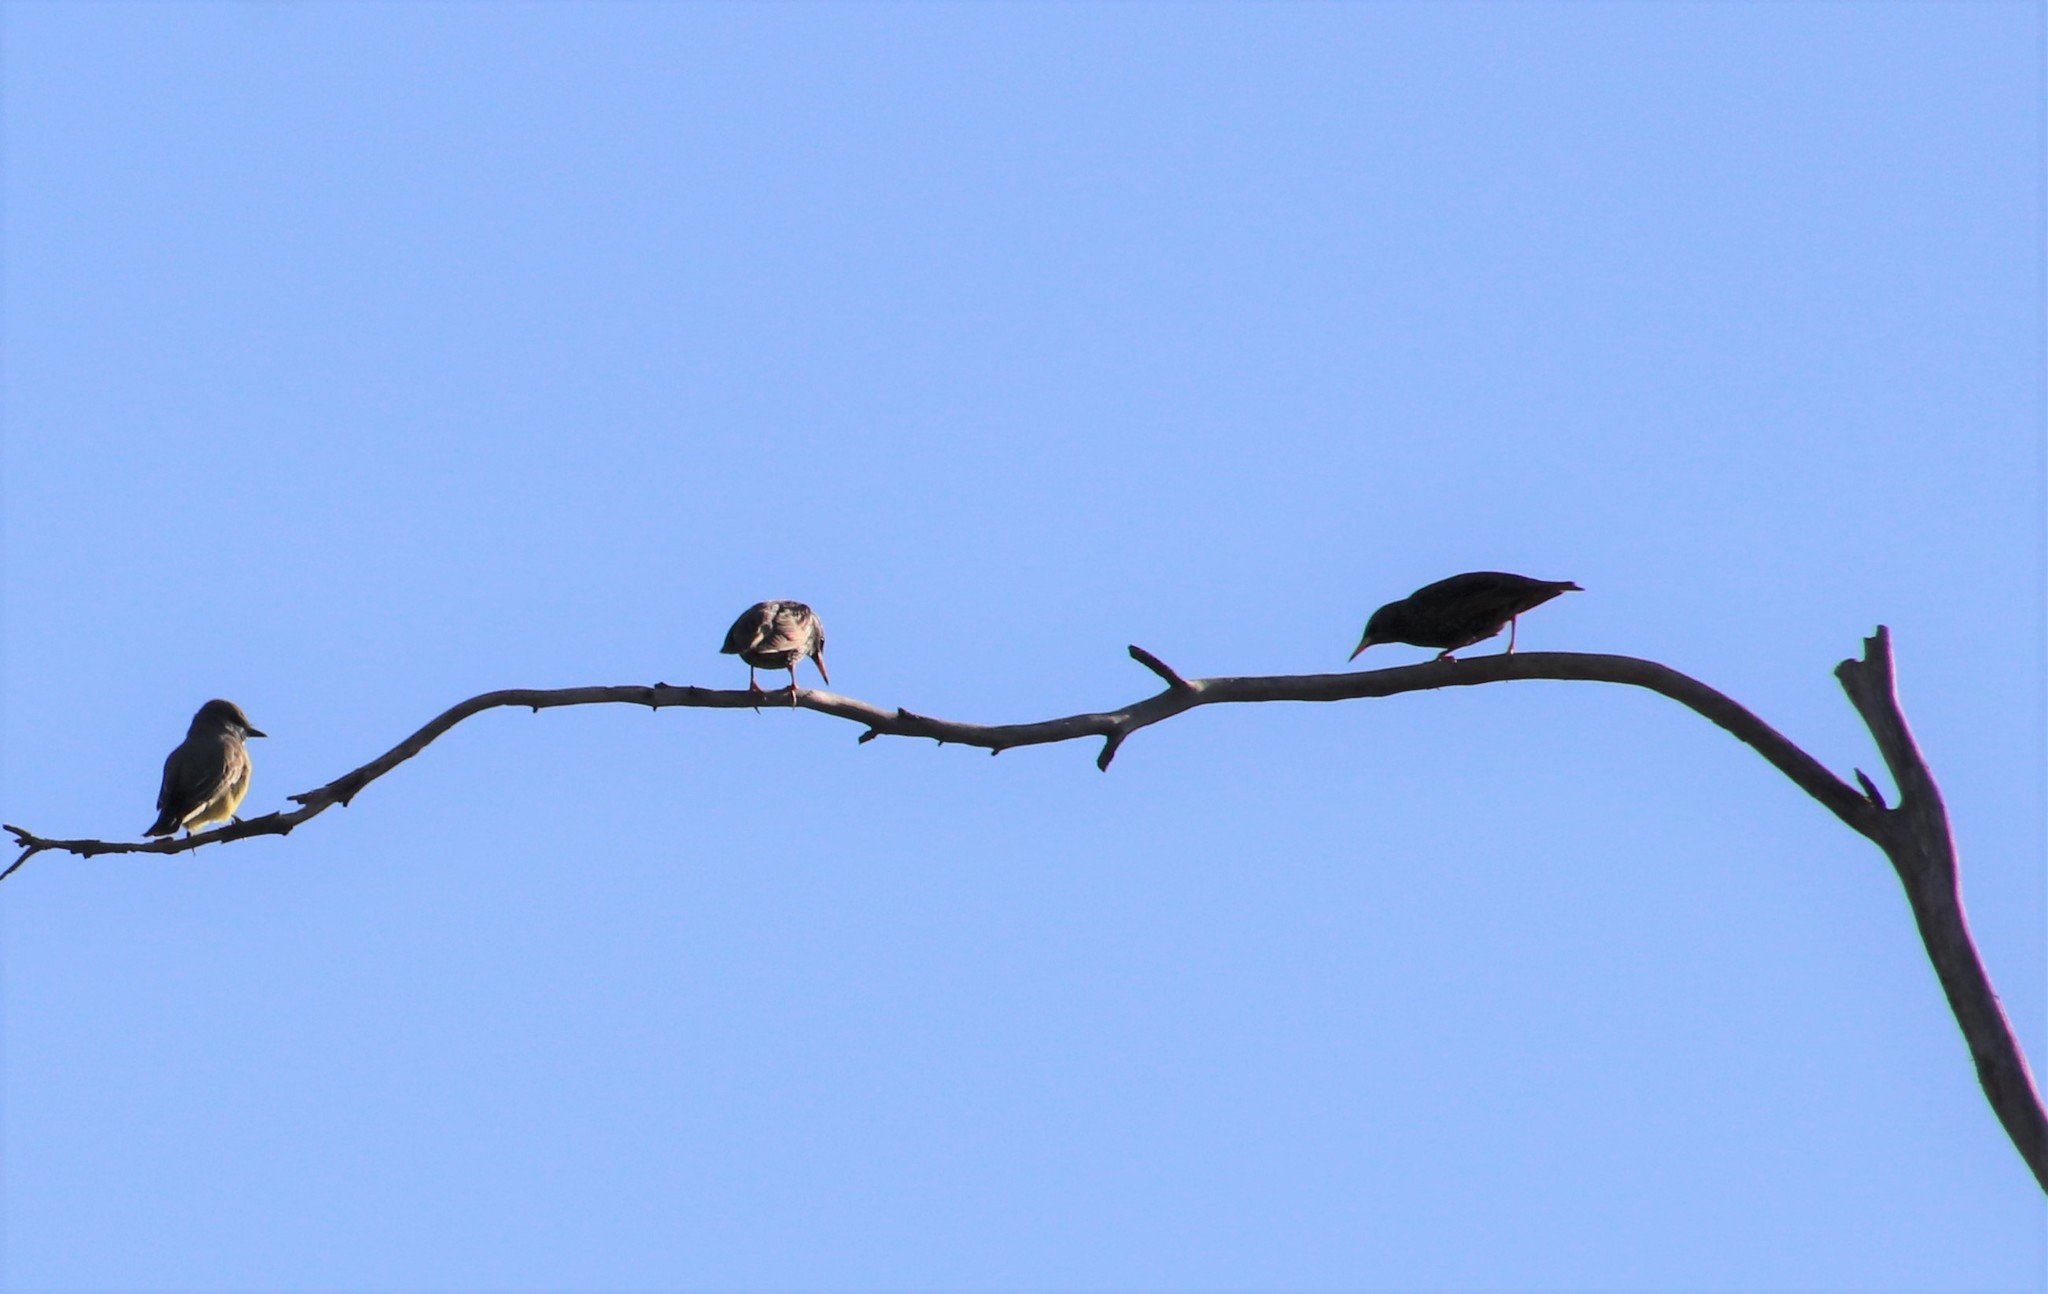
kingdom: Animalia
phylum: Chordata
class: Aves
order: Passeriformes
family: Sturnidae
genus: Sturnus
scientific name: Sturnus vulgaris
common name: Common starling
